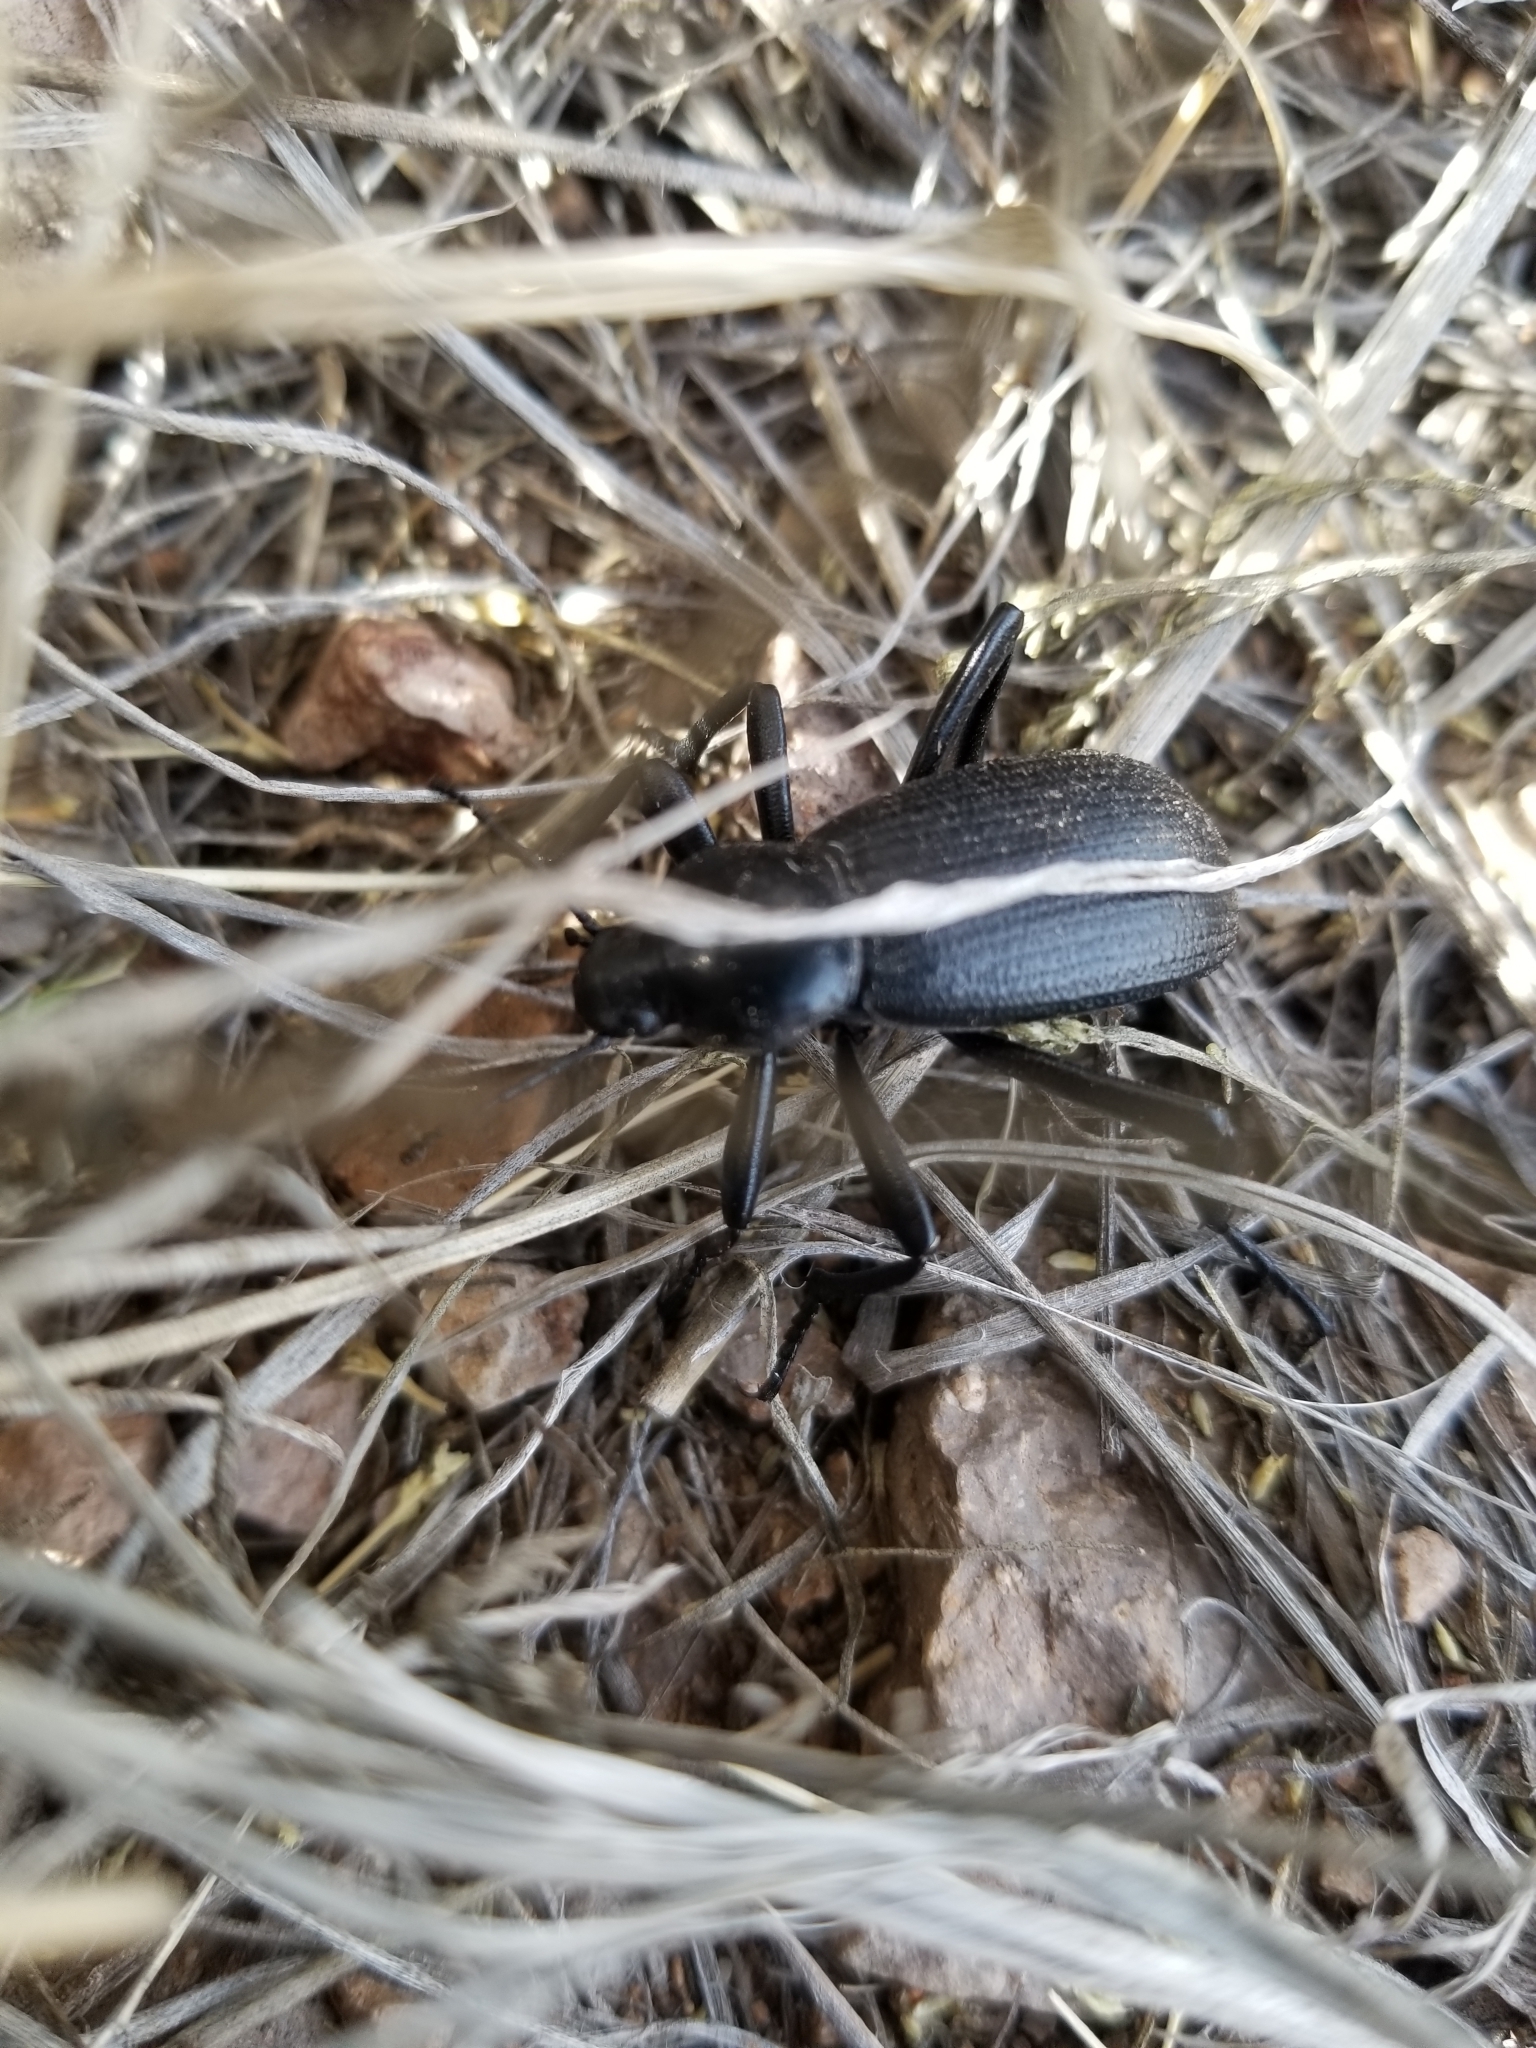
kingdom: Animalia
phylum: Arthropoda
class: Insecta
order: Coleoptera
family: Tenebrionidae
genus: Eleodes
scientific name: Eleodes obscura
